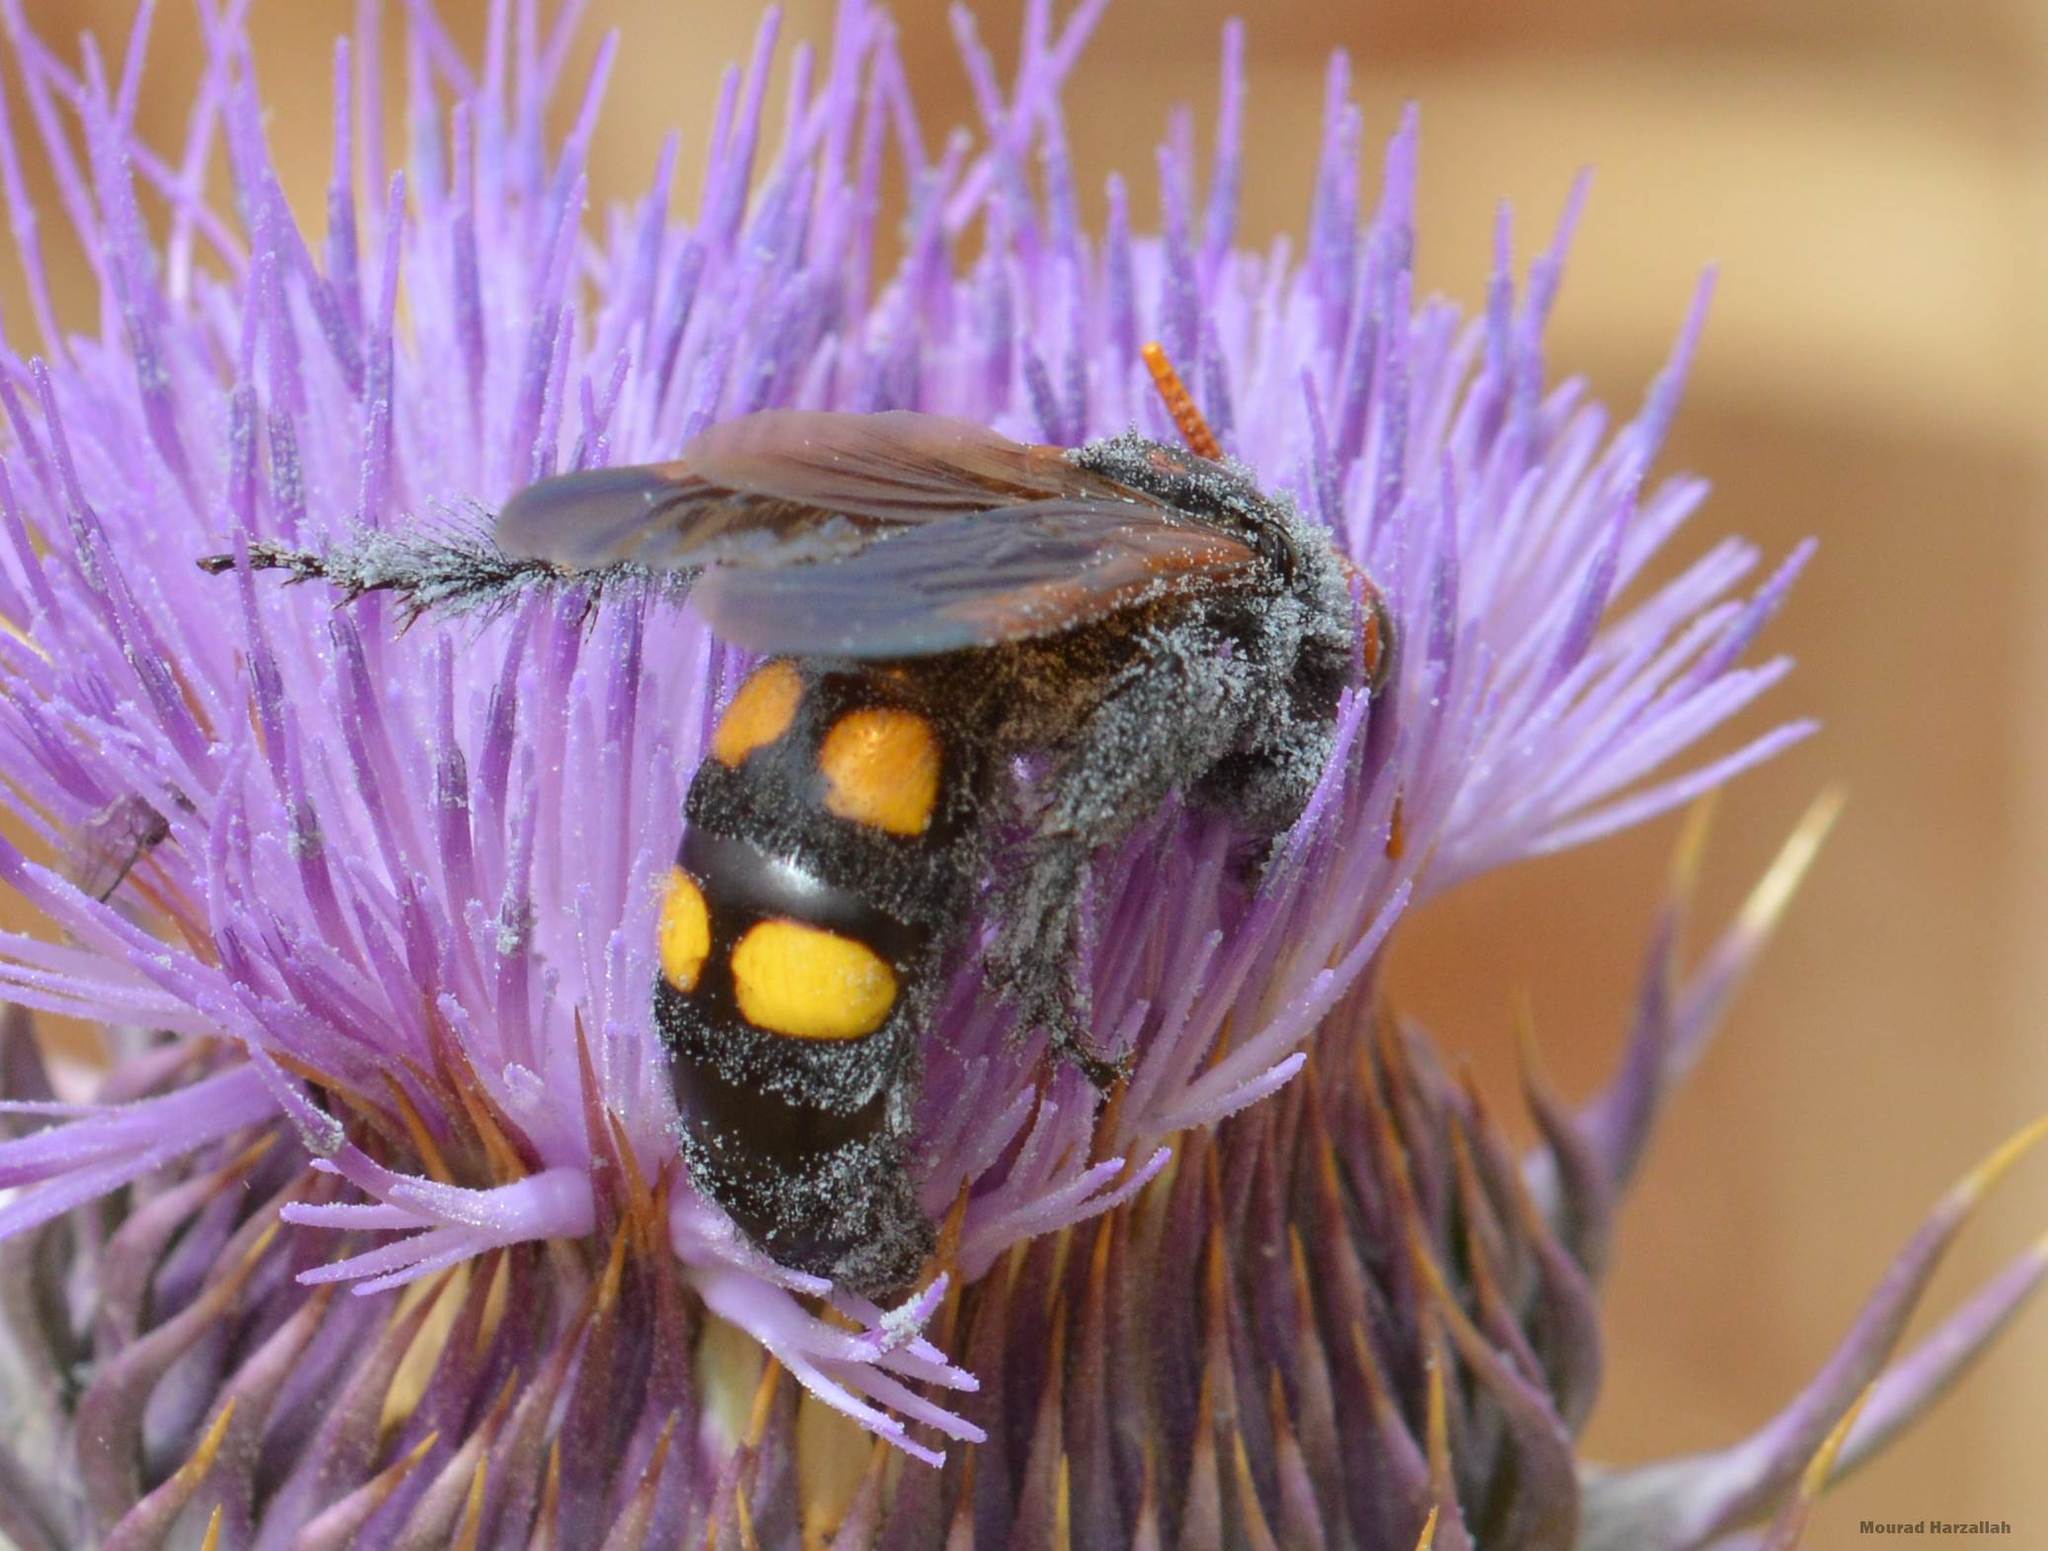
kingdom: Animalia
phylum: Arthropoda
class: Insecta
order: Hymenoptera
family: Scoliidae
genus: Megascolia
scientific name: Megascolia bidens
